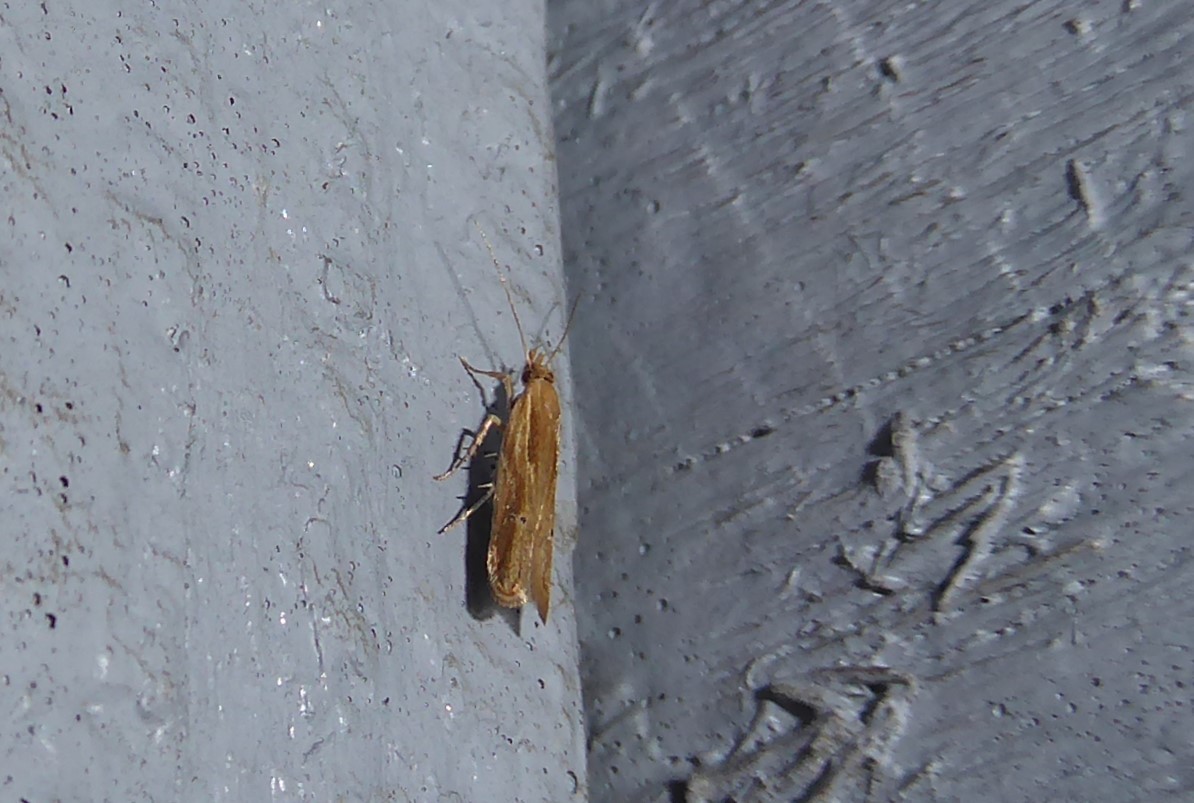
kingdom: Animalia
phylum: Arthropoda
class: Insecta
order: Lepidoptera
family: Depressariidae
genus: Eutorna
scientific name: Eutorna symmorpha
